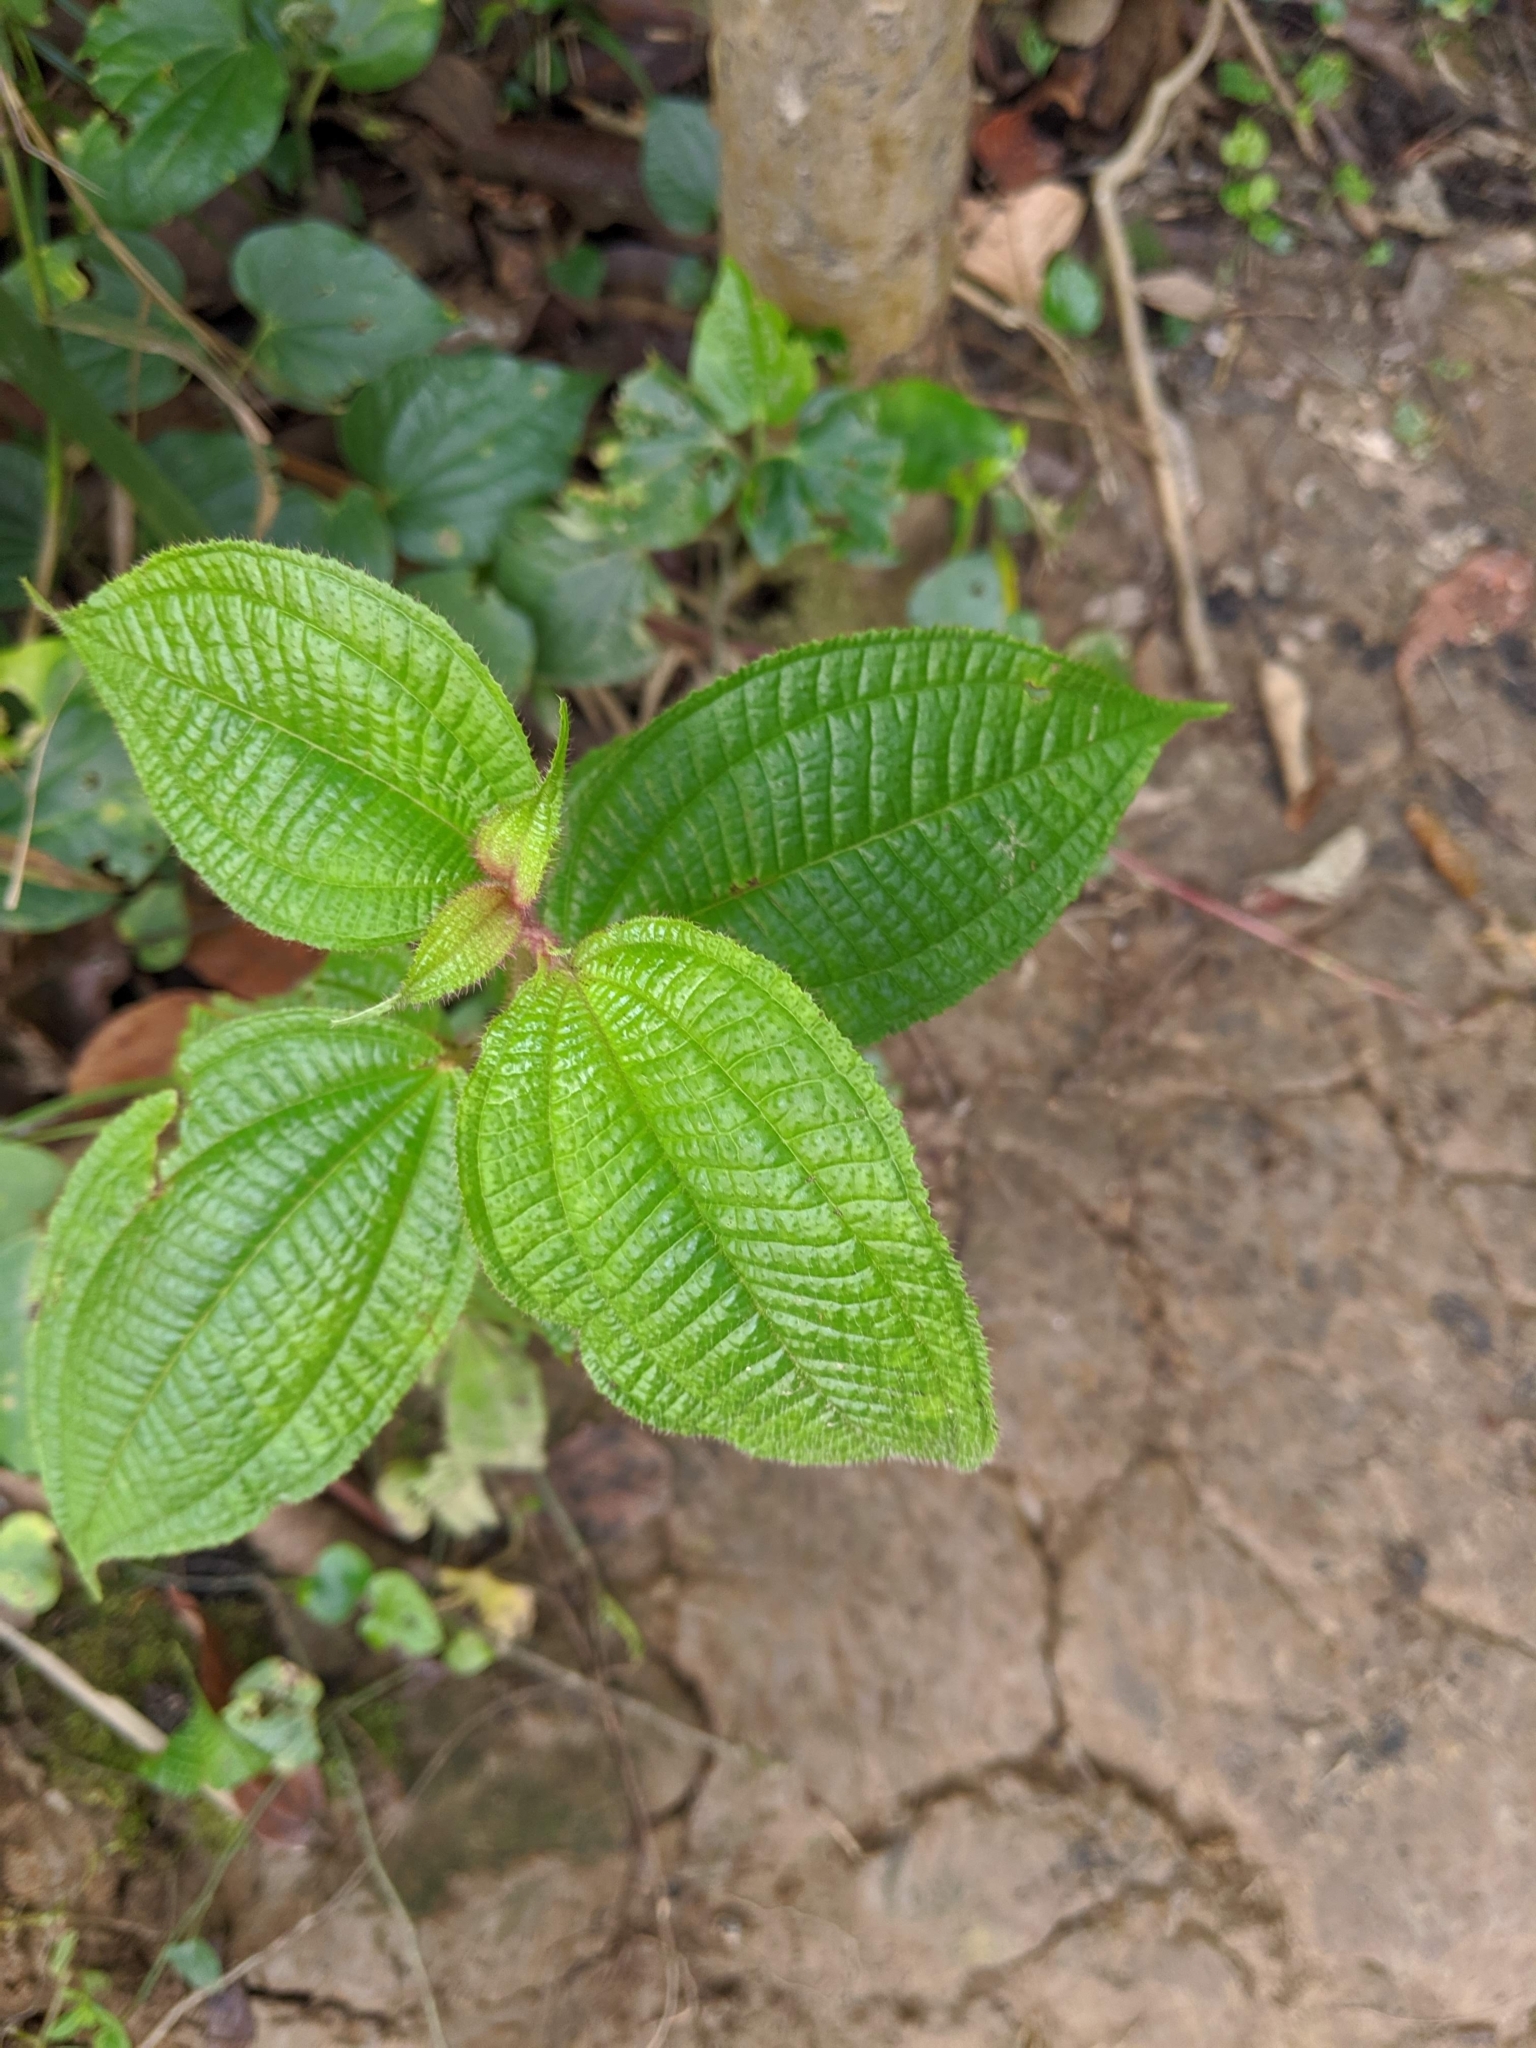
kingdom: Plantae
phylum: Tracheophyta
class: Magnoliopsida
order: Myrtales
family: Melastomataceae
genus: Miconia
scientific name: Miconia crenata
